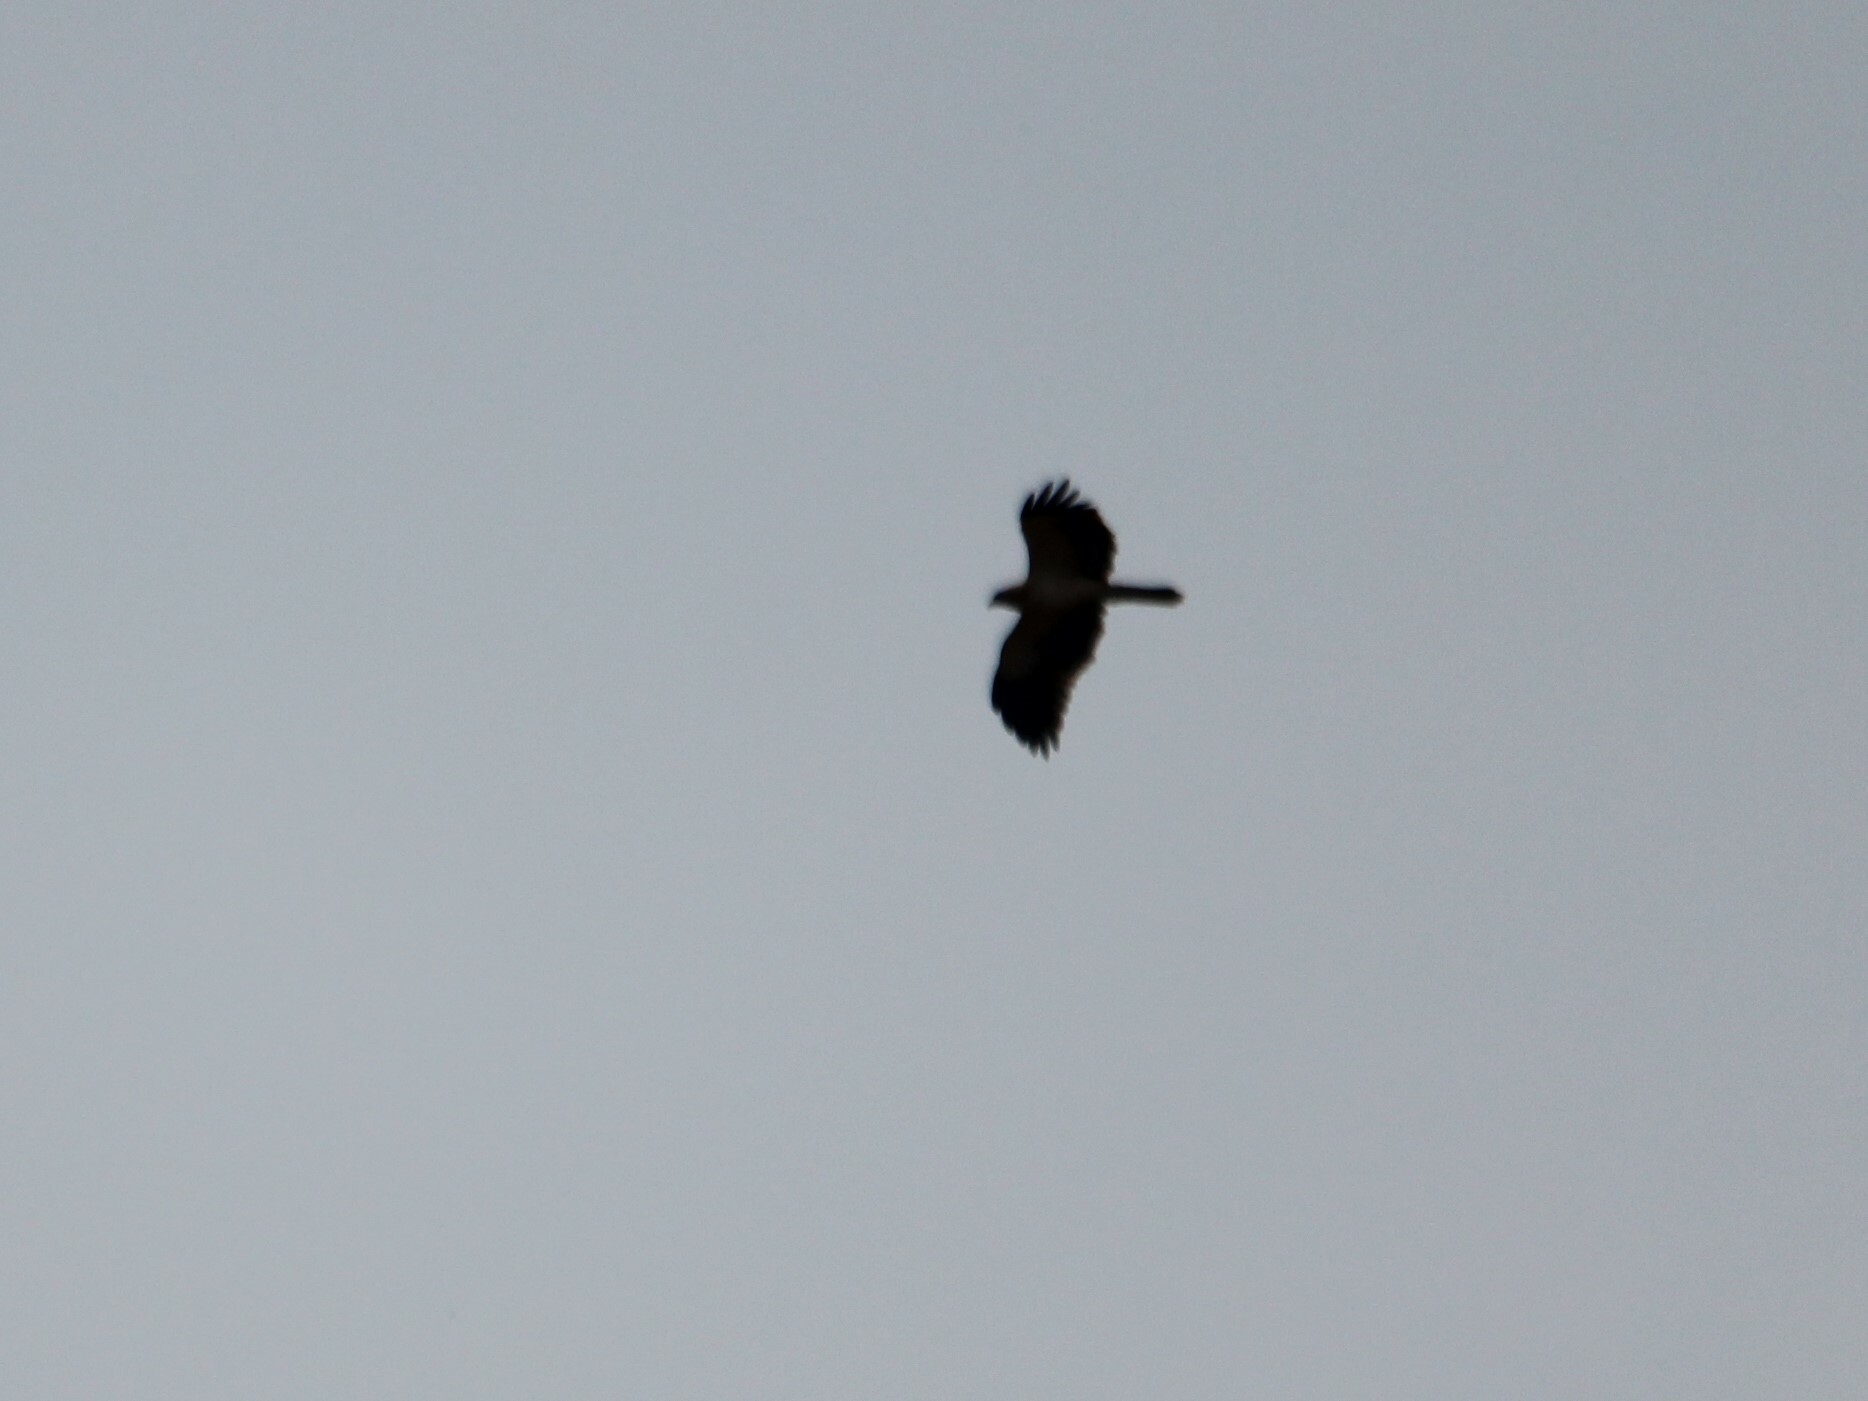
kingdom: Animalia
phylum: Chordata
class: Aves
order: Accipitriformes
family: Accipitridae
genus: Hieraaetus
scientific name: Hieraaetus pennatus
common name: Booted eagle
